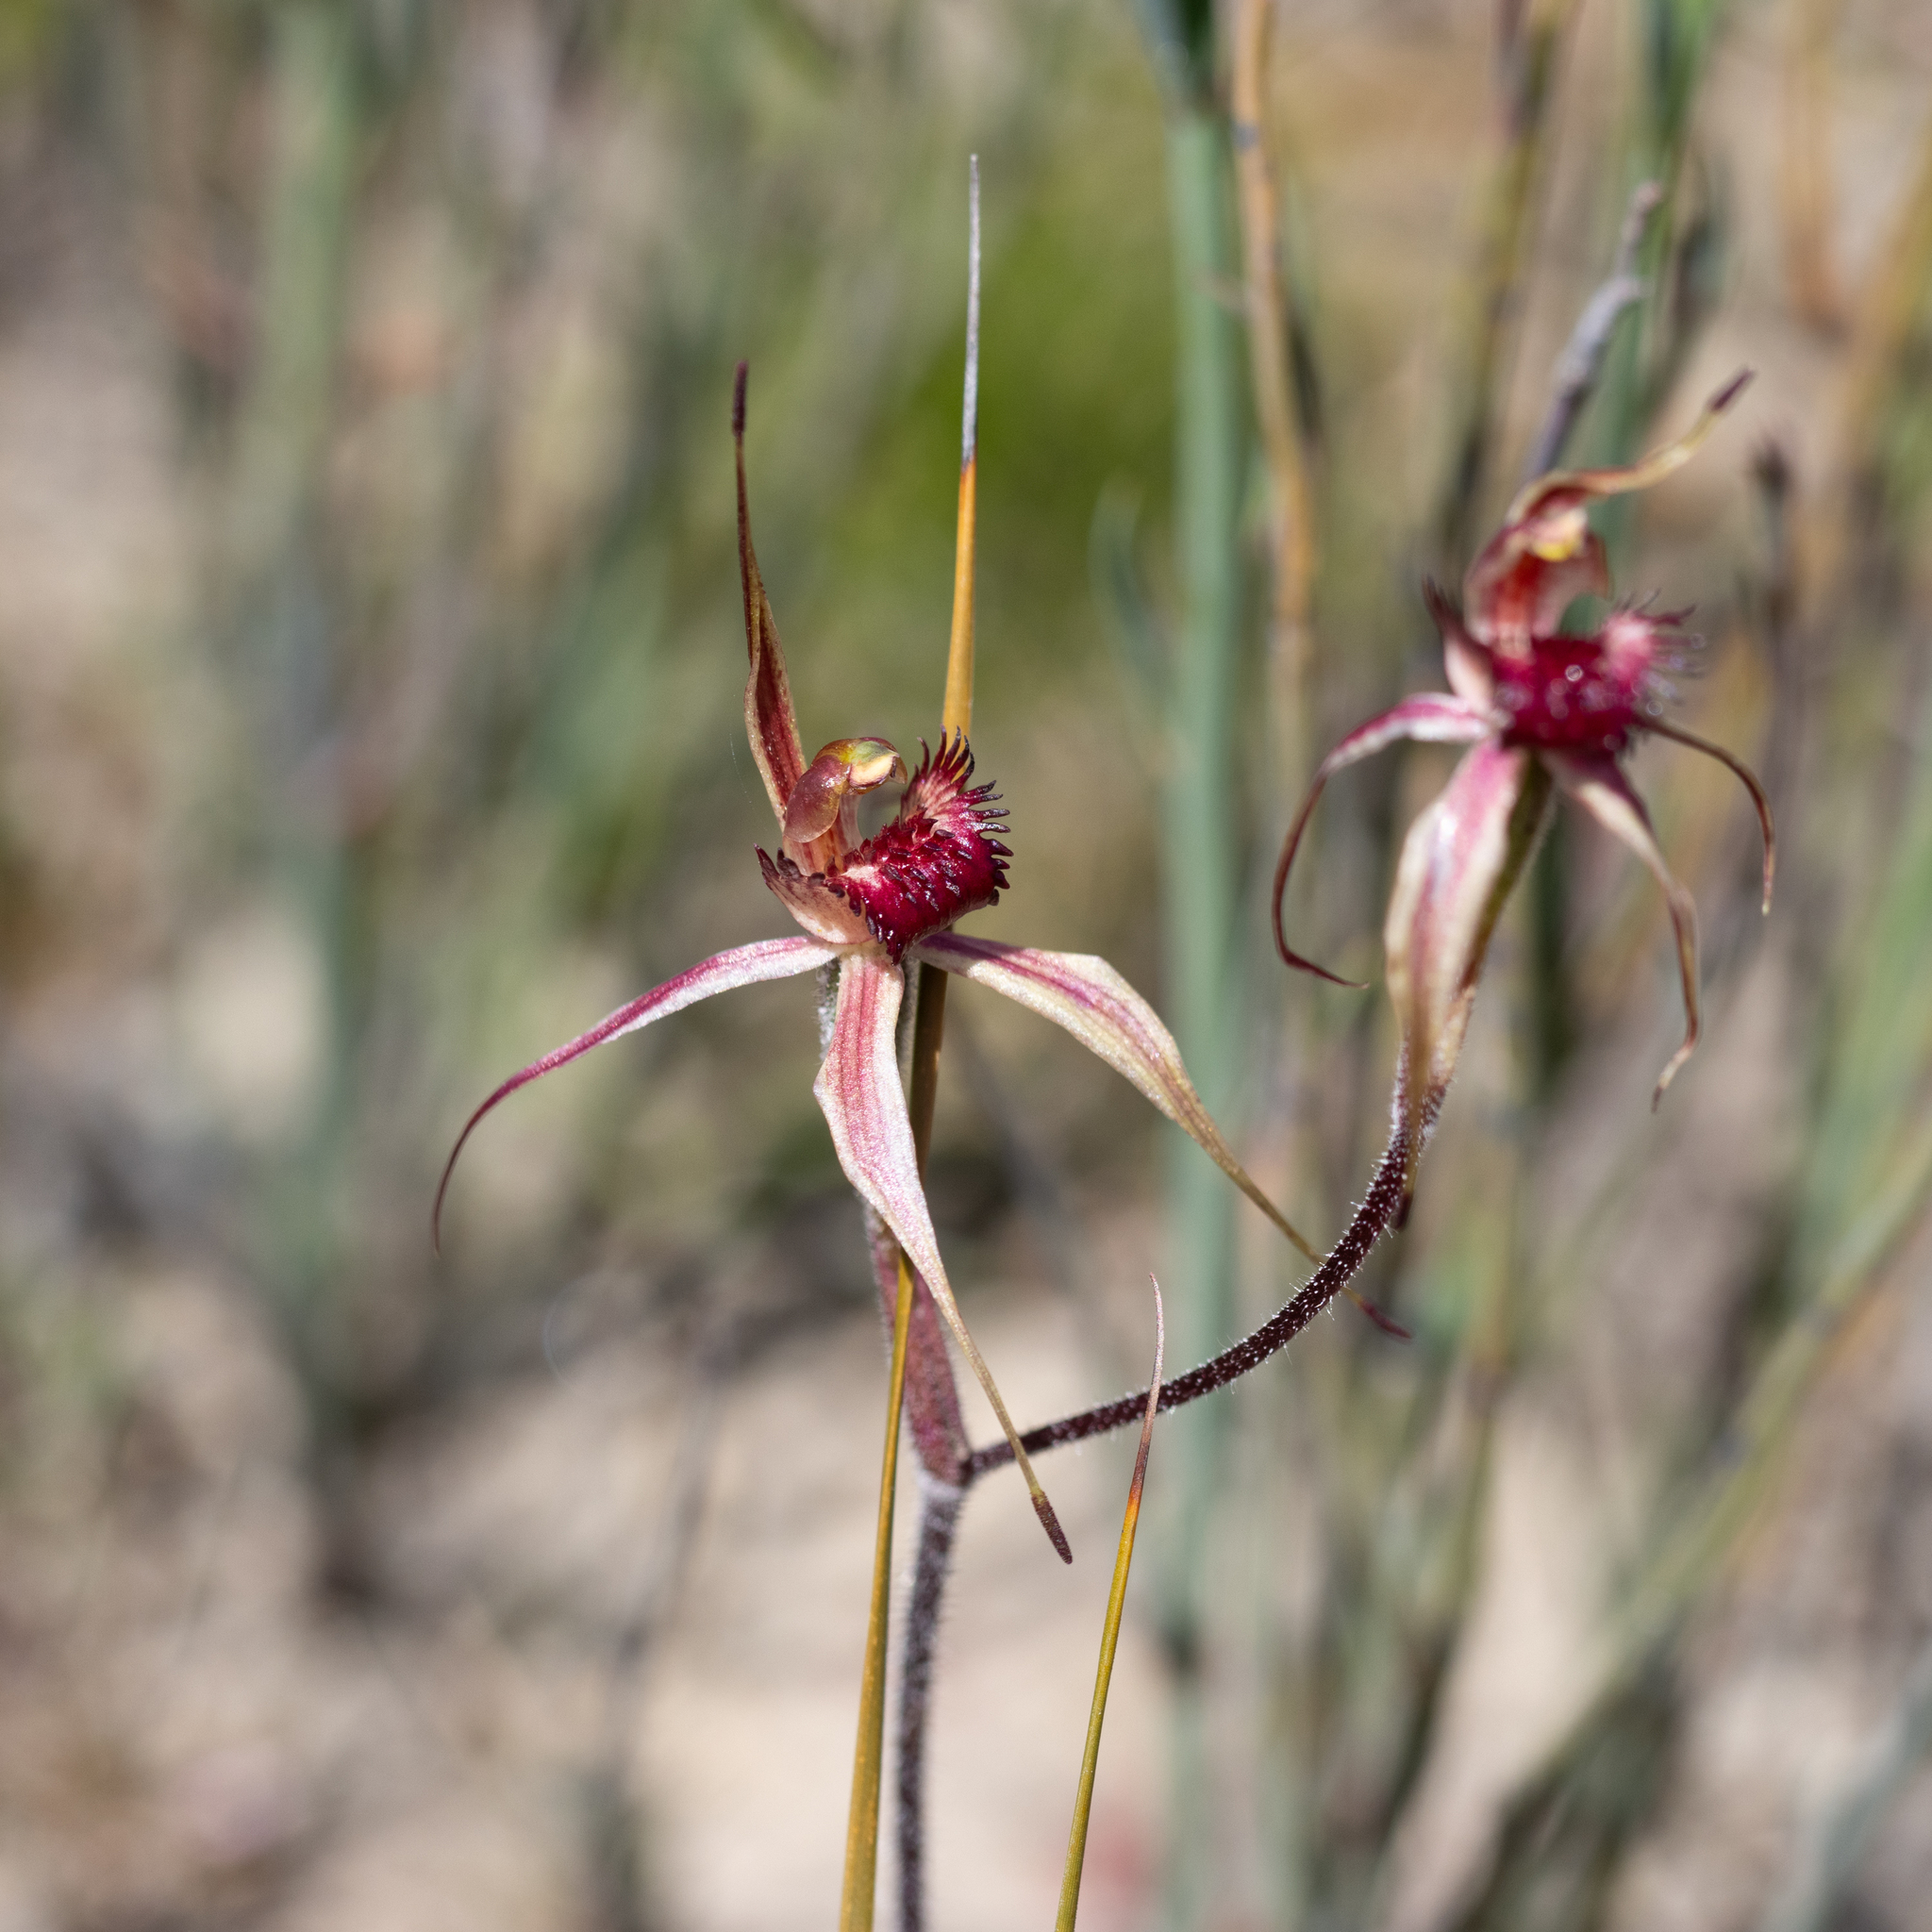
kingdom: Plantae
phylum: Tracheophyta
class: Liliopsida
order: Asparagales
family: Orchidaceae
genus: Caladenia
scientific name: Caladenia reticulata
